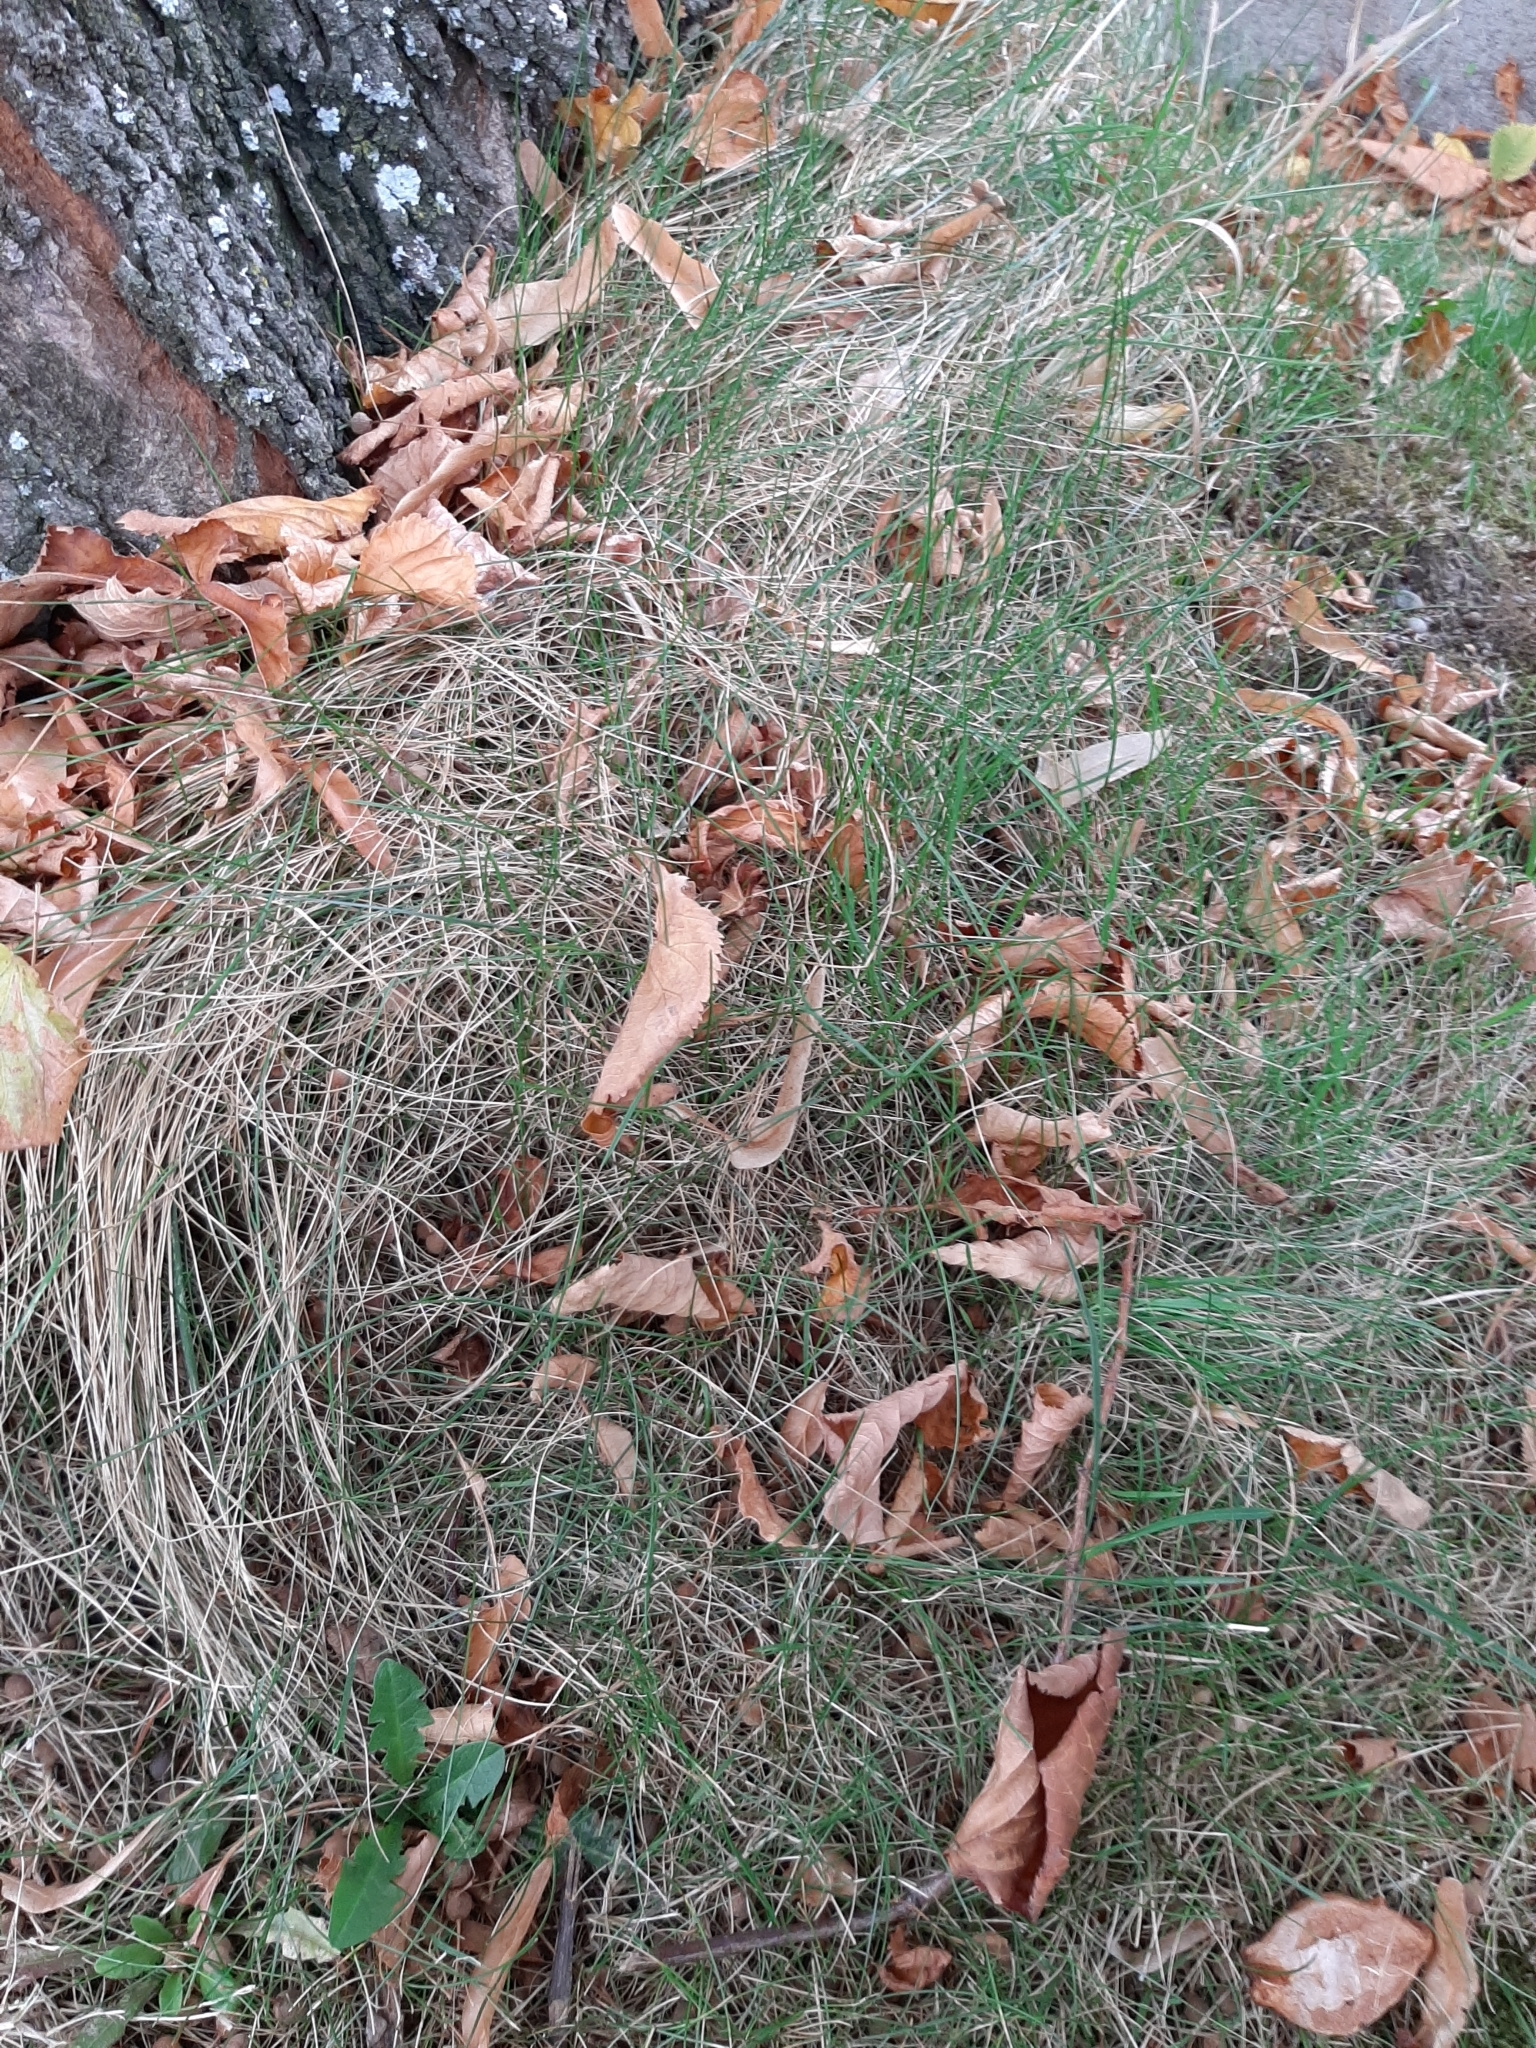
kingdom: Plantae
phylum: Tracheophyta
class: Liliopsida
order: Poales
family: Poaceae
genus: Festuca
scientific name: Festuca rubra
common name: Red fescue
